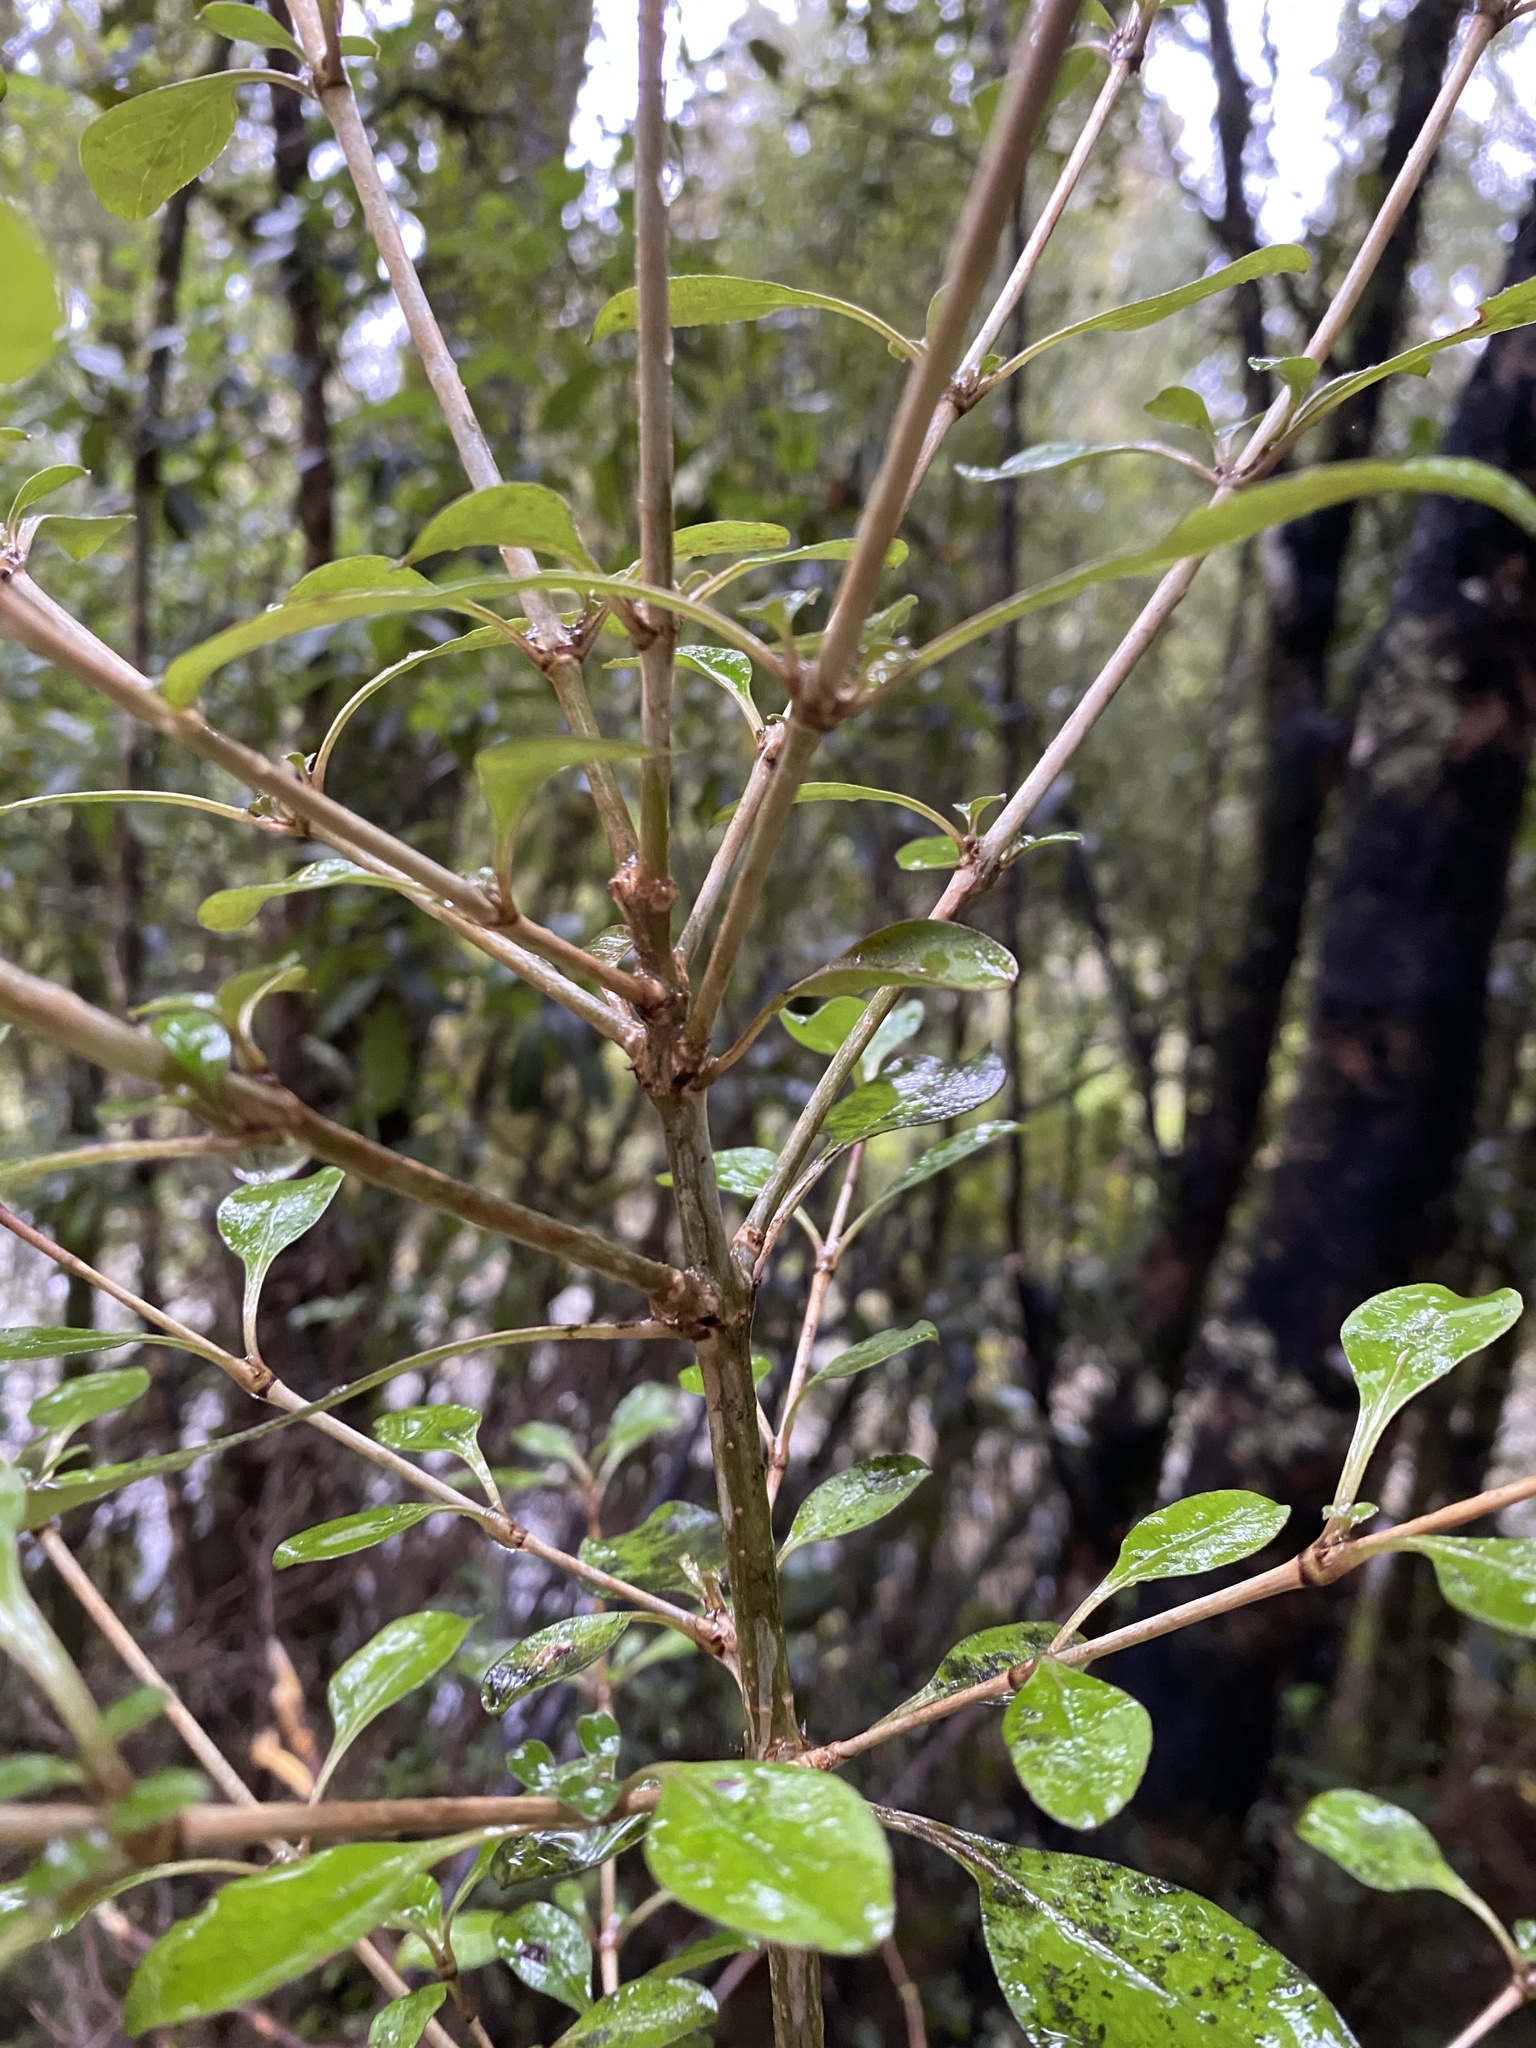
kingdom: Plantae
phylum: Tracheophyta
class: Magnoliopsida
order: Gentianales
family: Rubiaceae
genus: Coprosma
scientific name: Coprosma foetidissima
